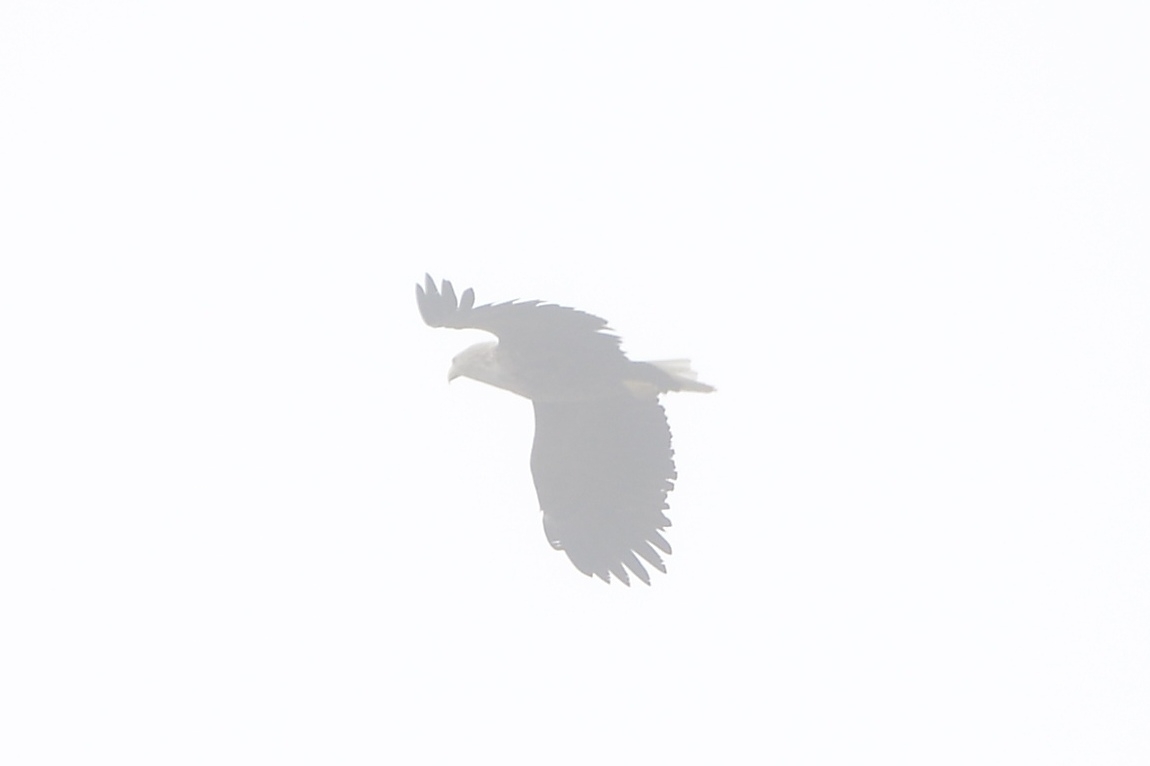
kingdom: Animalia
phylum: Chordata
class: Aves
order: Accipitriformes
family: Accipitridae
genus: Haliaeetus
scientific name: Haliaeetus albicilla
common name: White-tailed eagle
